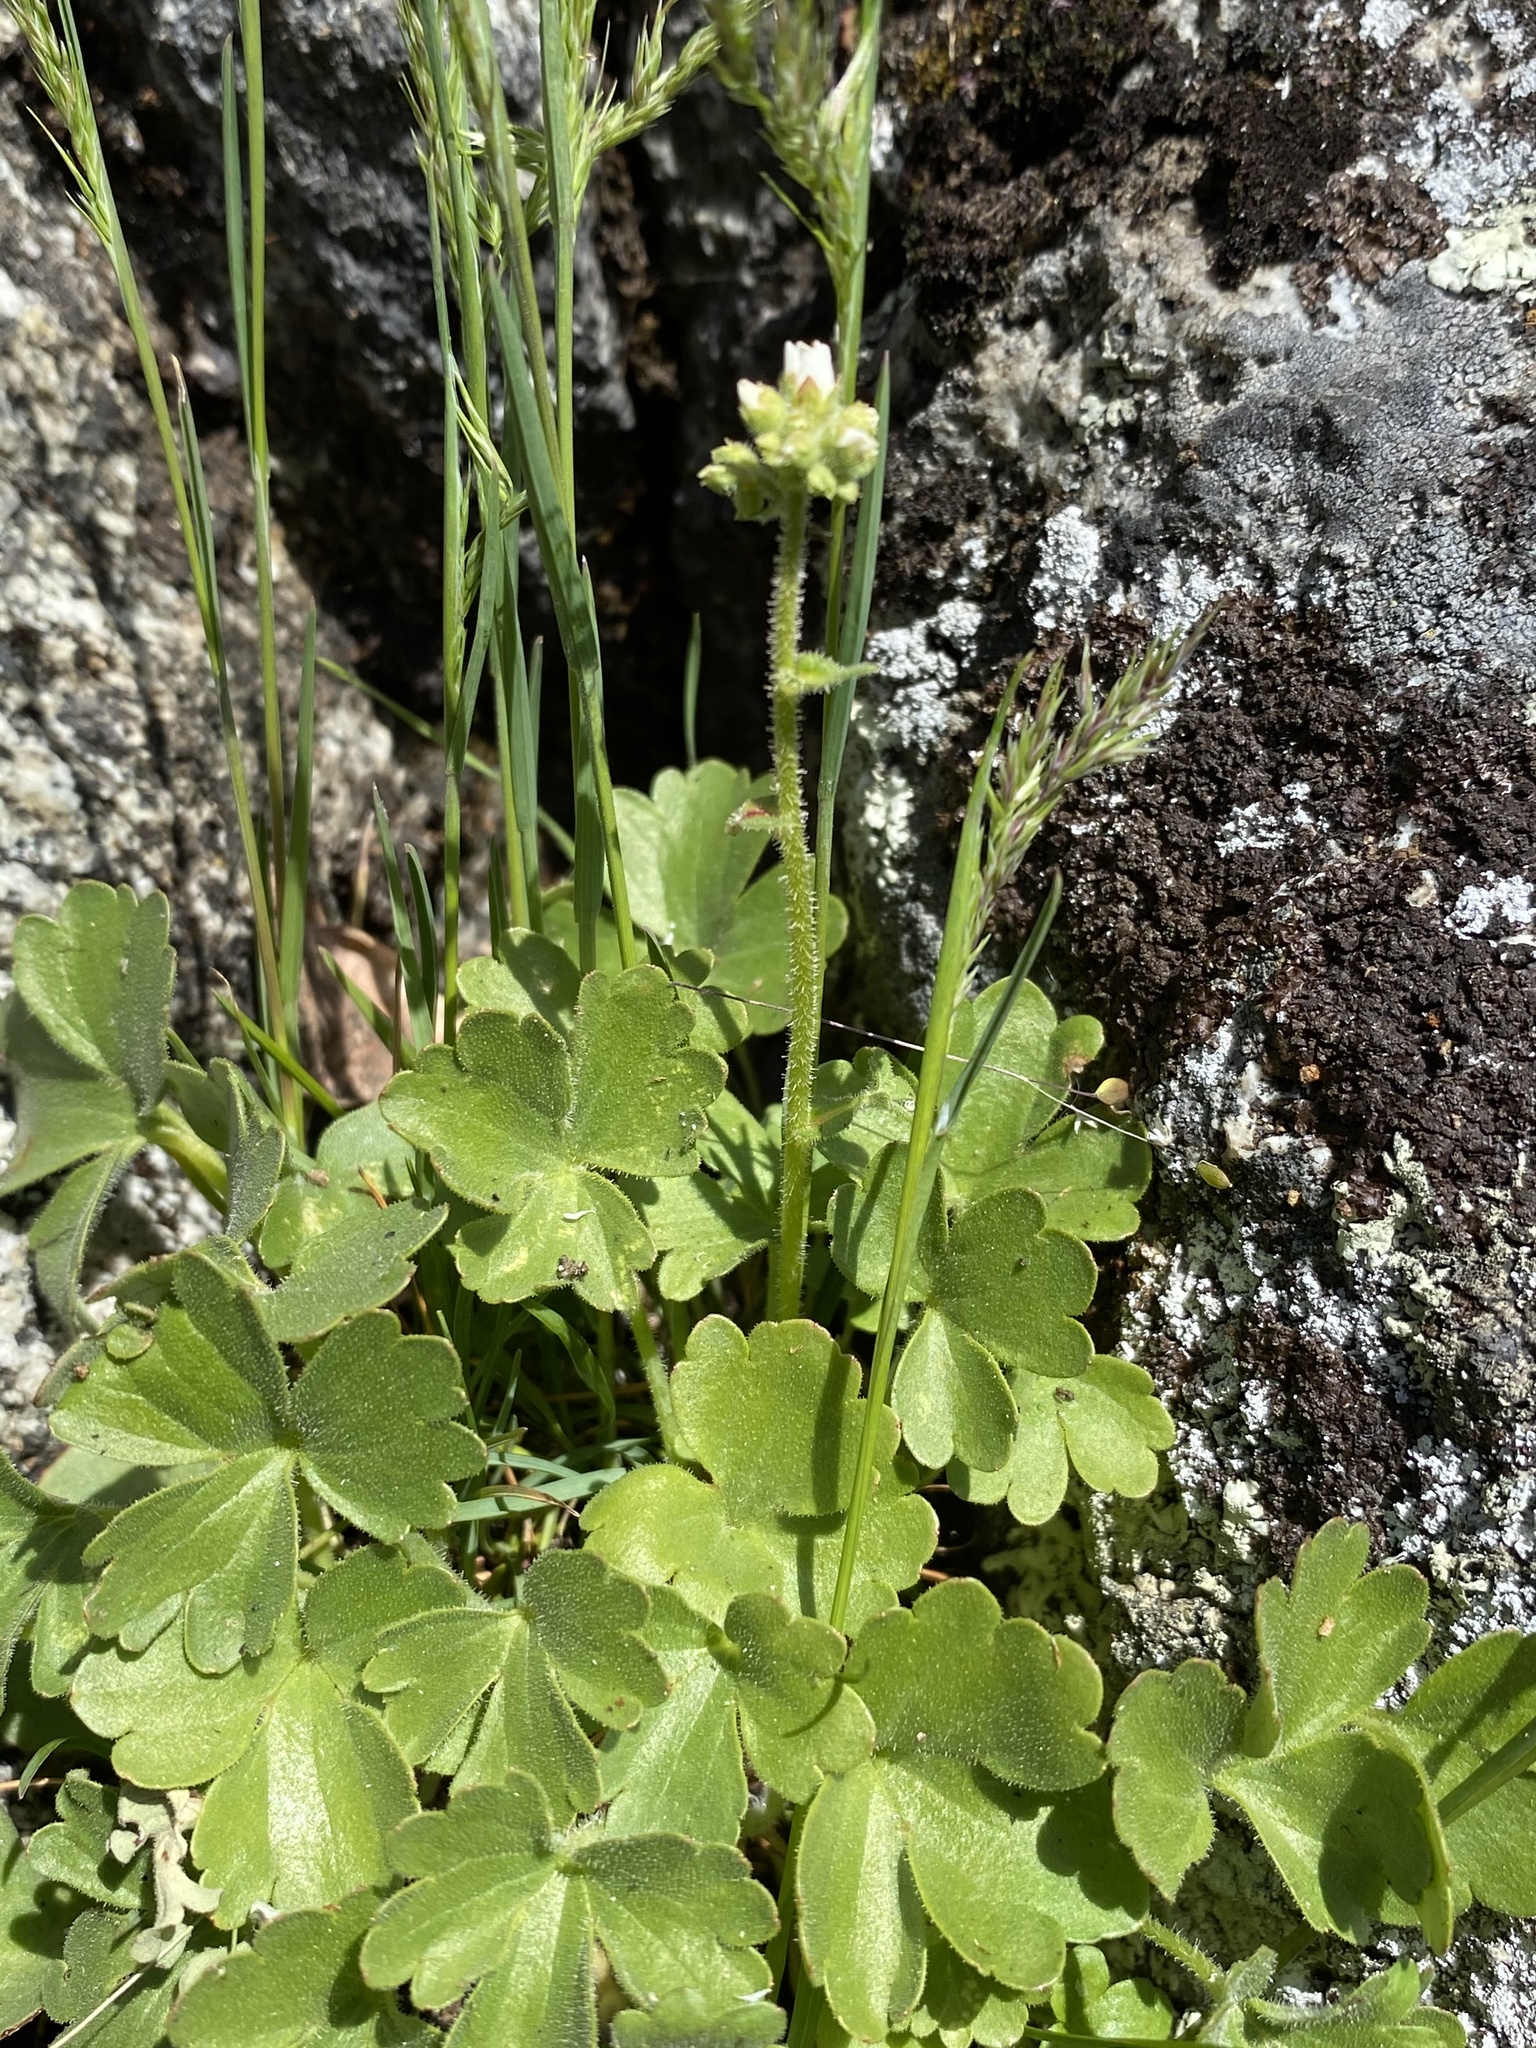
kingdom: Plantae
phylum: Tracheophyta
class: Magnoliopsida
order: Saxifragales
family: Saxifragaceae
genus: Hemieva
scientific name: Hemieva ranunculifolia
